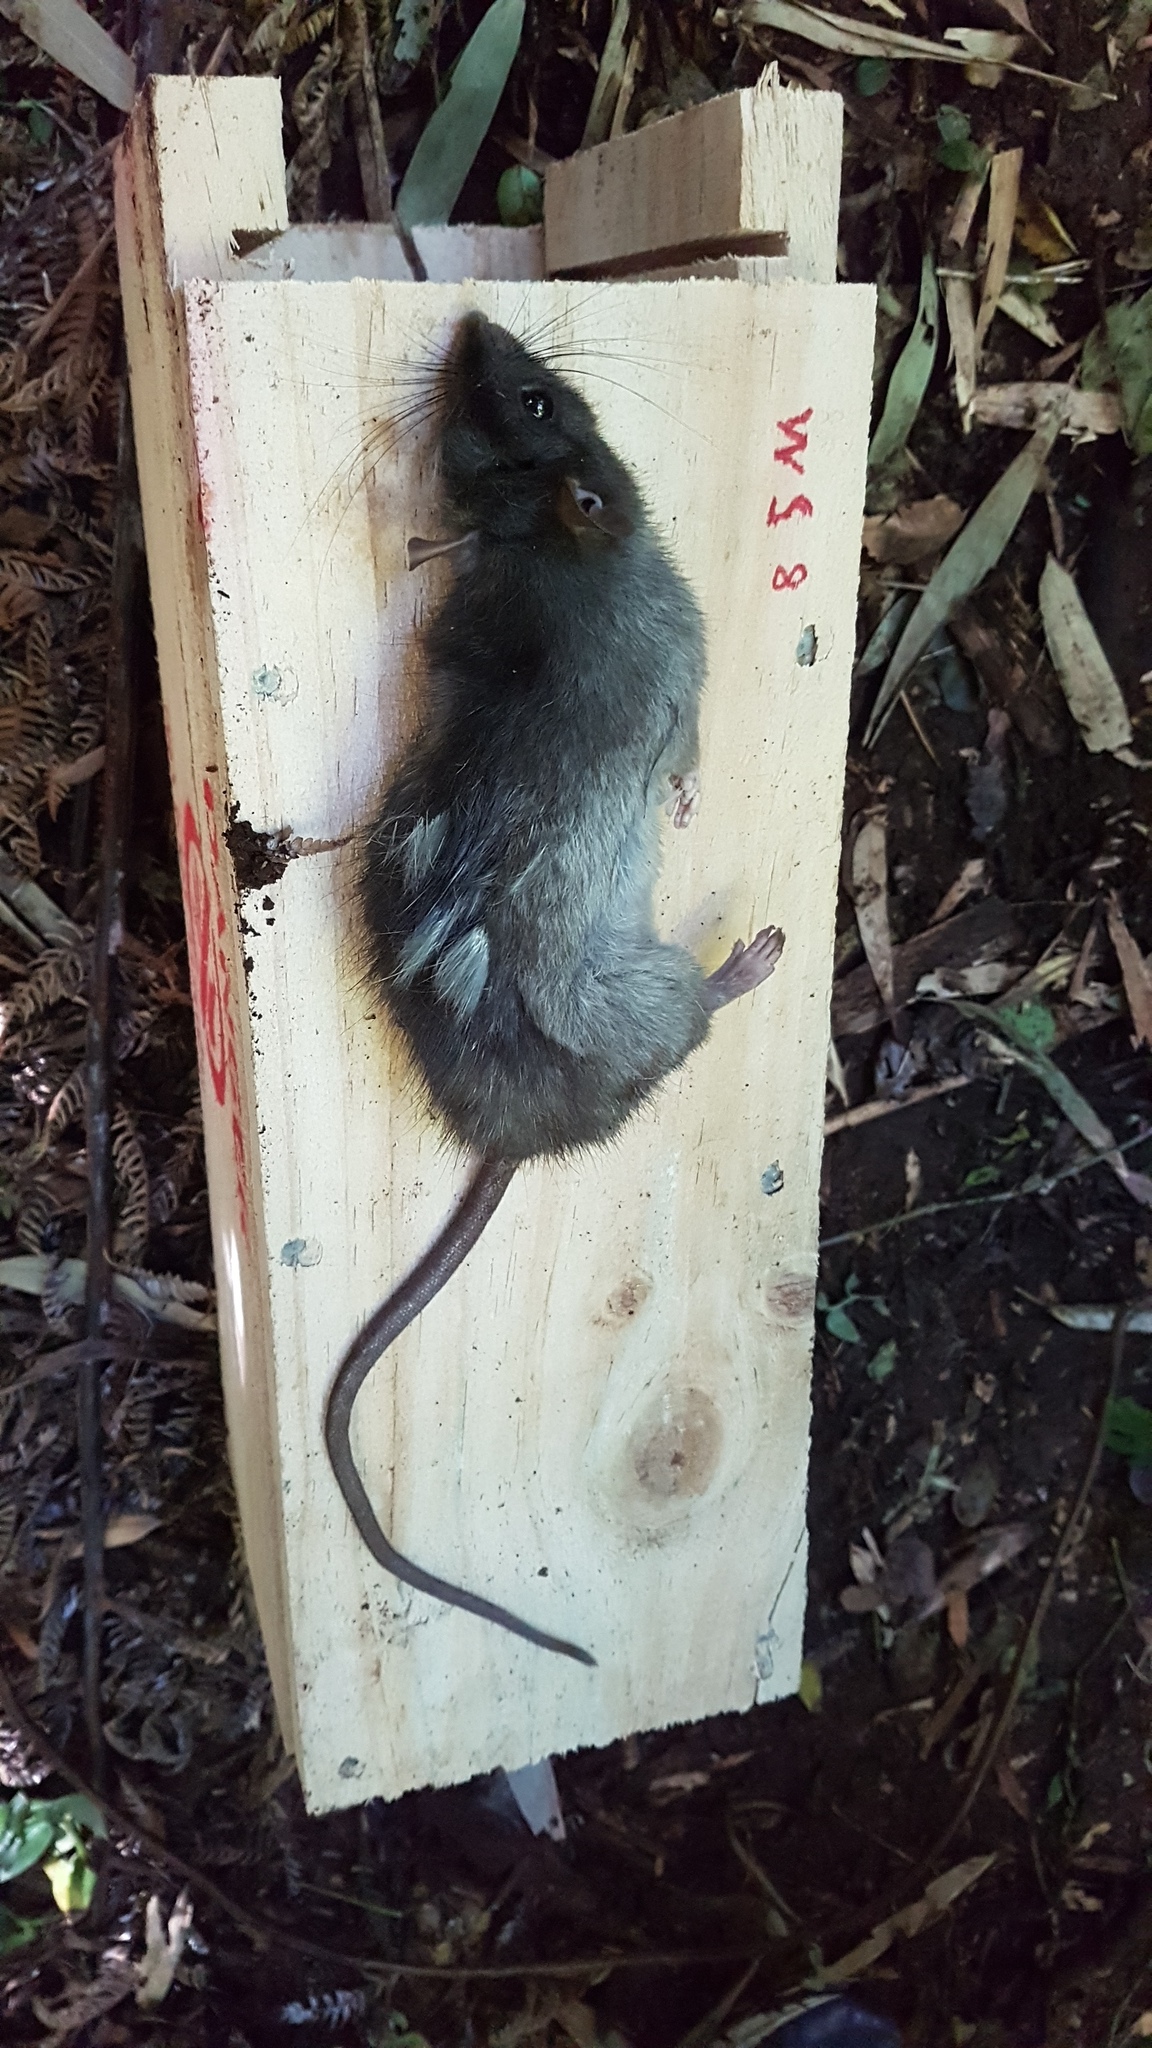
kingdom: Animalia
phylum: Chordata
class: Mammalia
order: Rodentia
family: Muridae
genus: Rattus
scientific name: Rattus rattus
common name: Black rat
